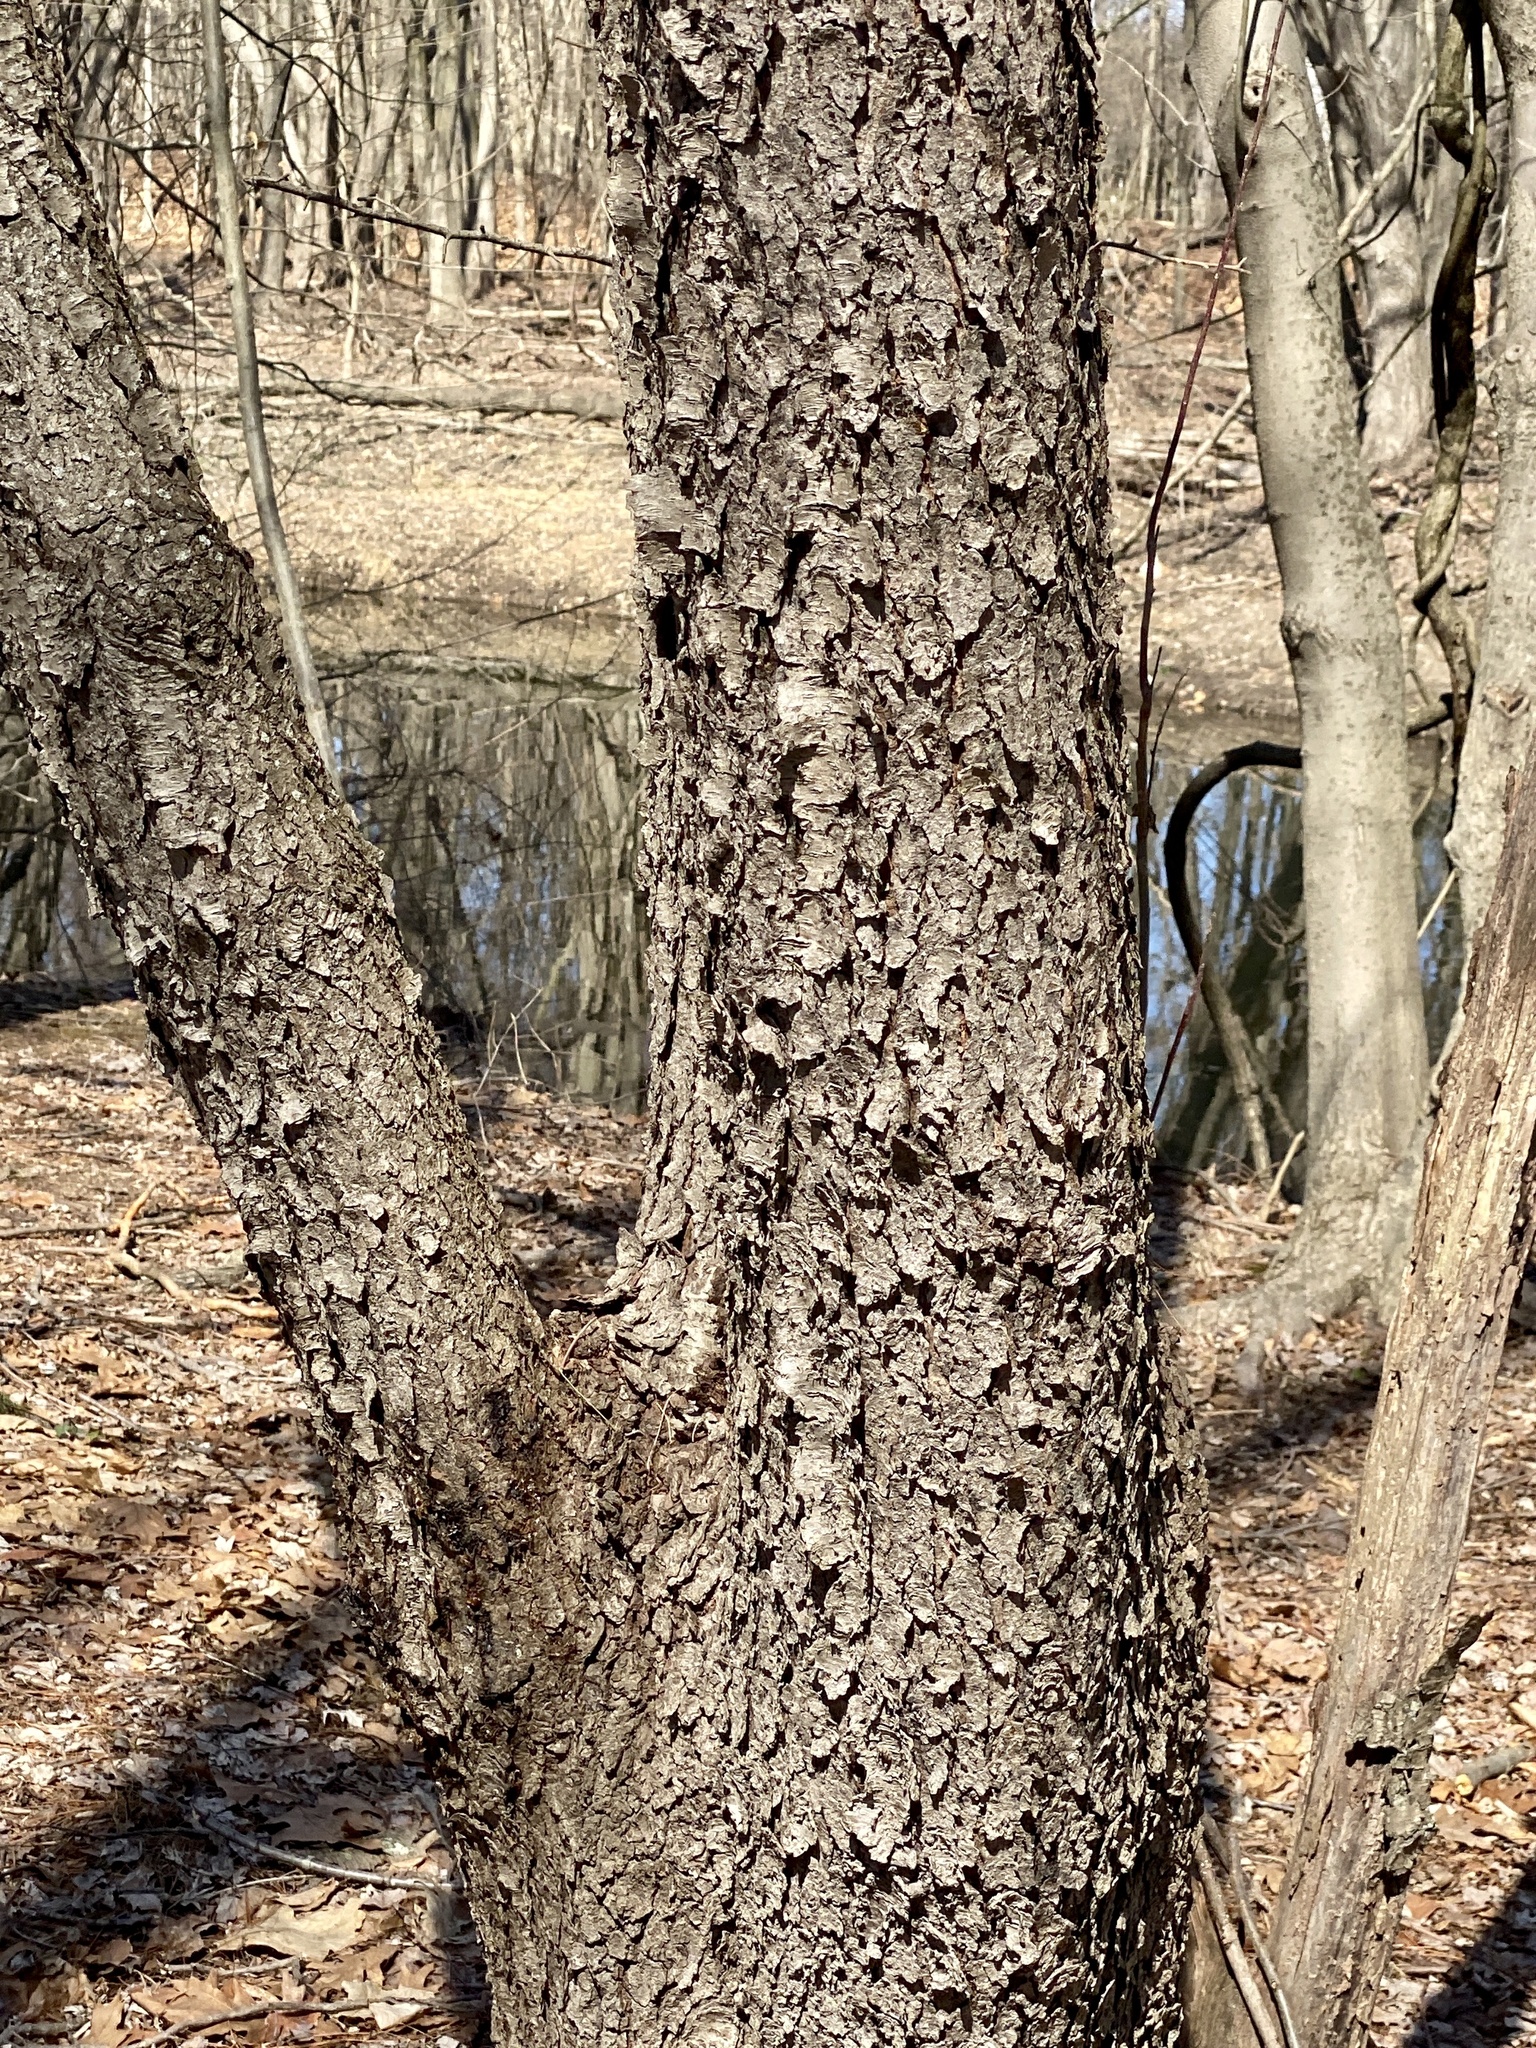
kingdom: Plantae
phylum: Tracheophyta
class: Magnoliopsida
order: Rosales
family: Rosaceae
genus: Prunus
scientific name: Prunus serotina
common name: Black cherry
